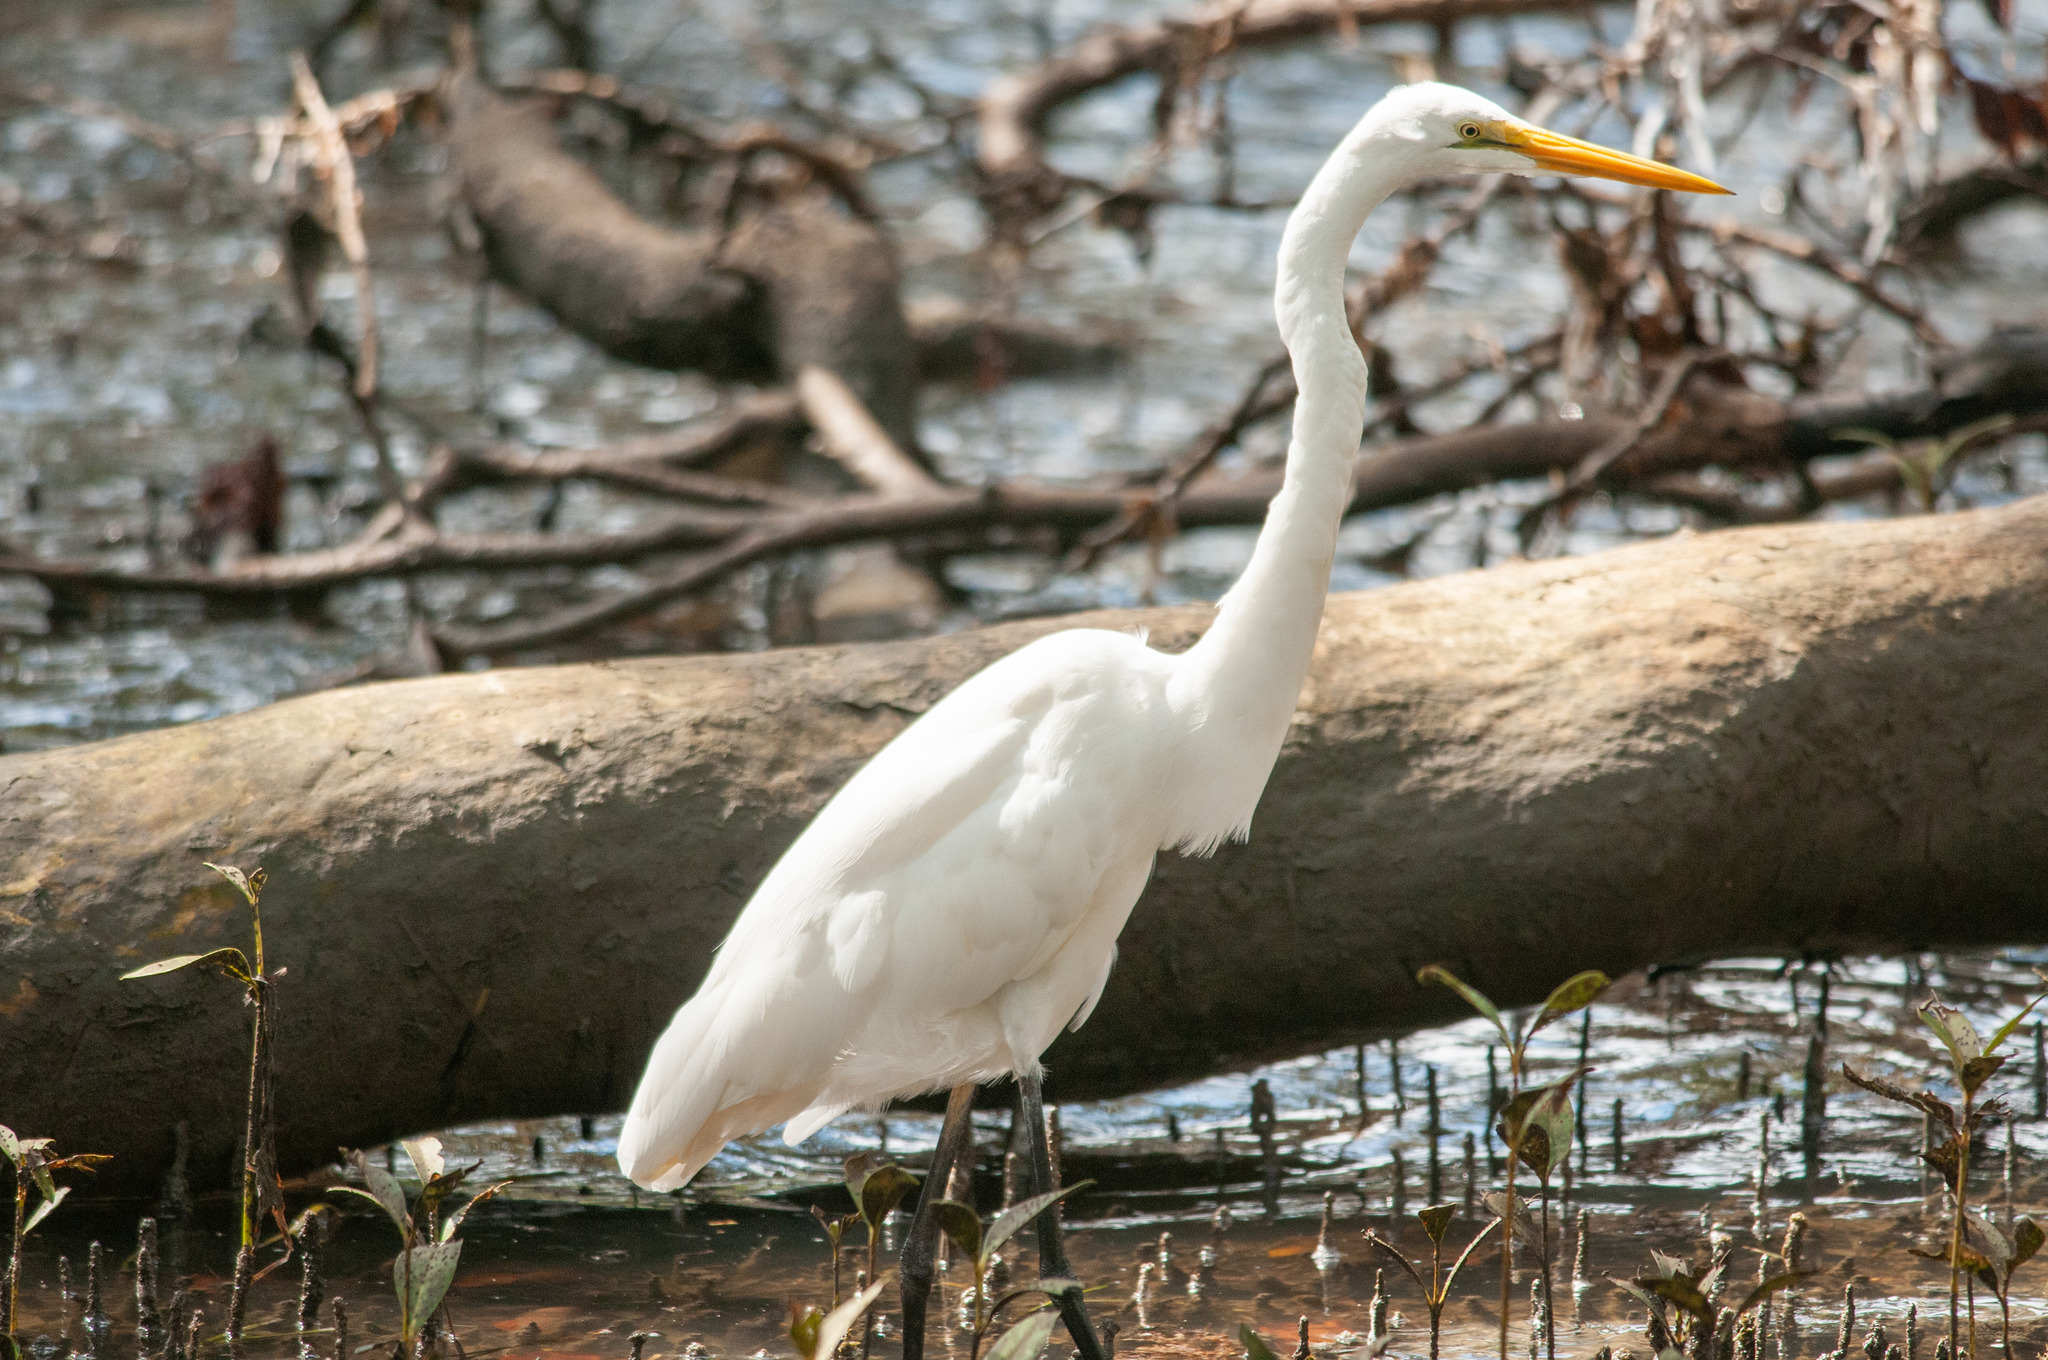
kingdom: Animalia
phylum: Chordata
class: Aves
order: Pelecaniformes
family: Ardeidae
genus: Ardea
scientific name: Ardea alba
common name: Great egret
